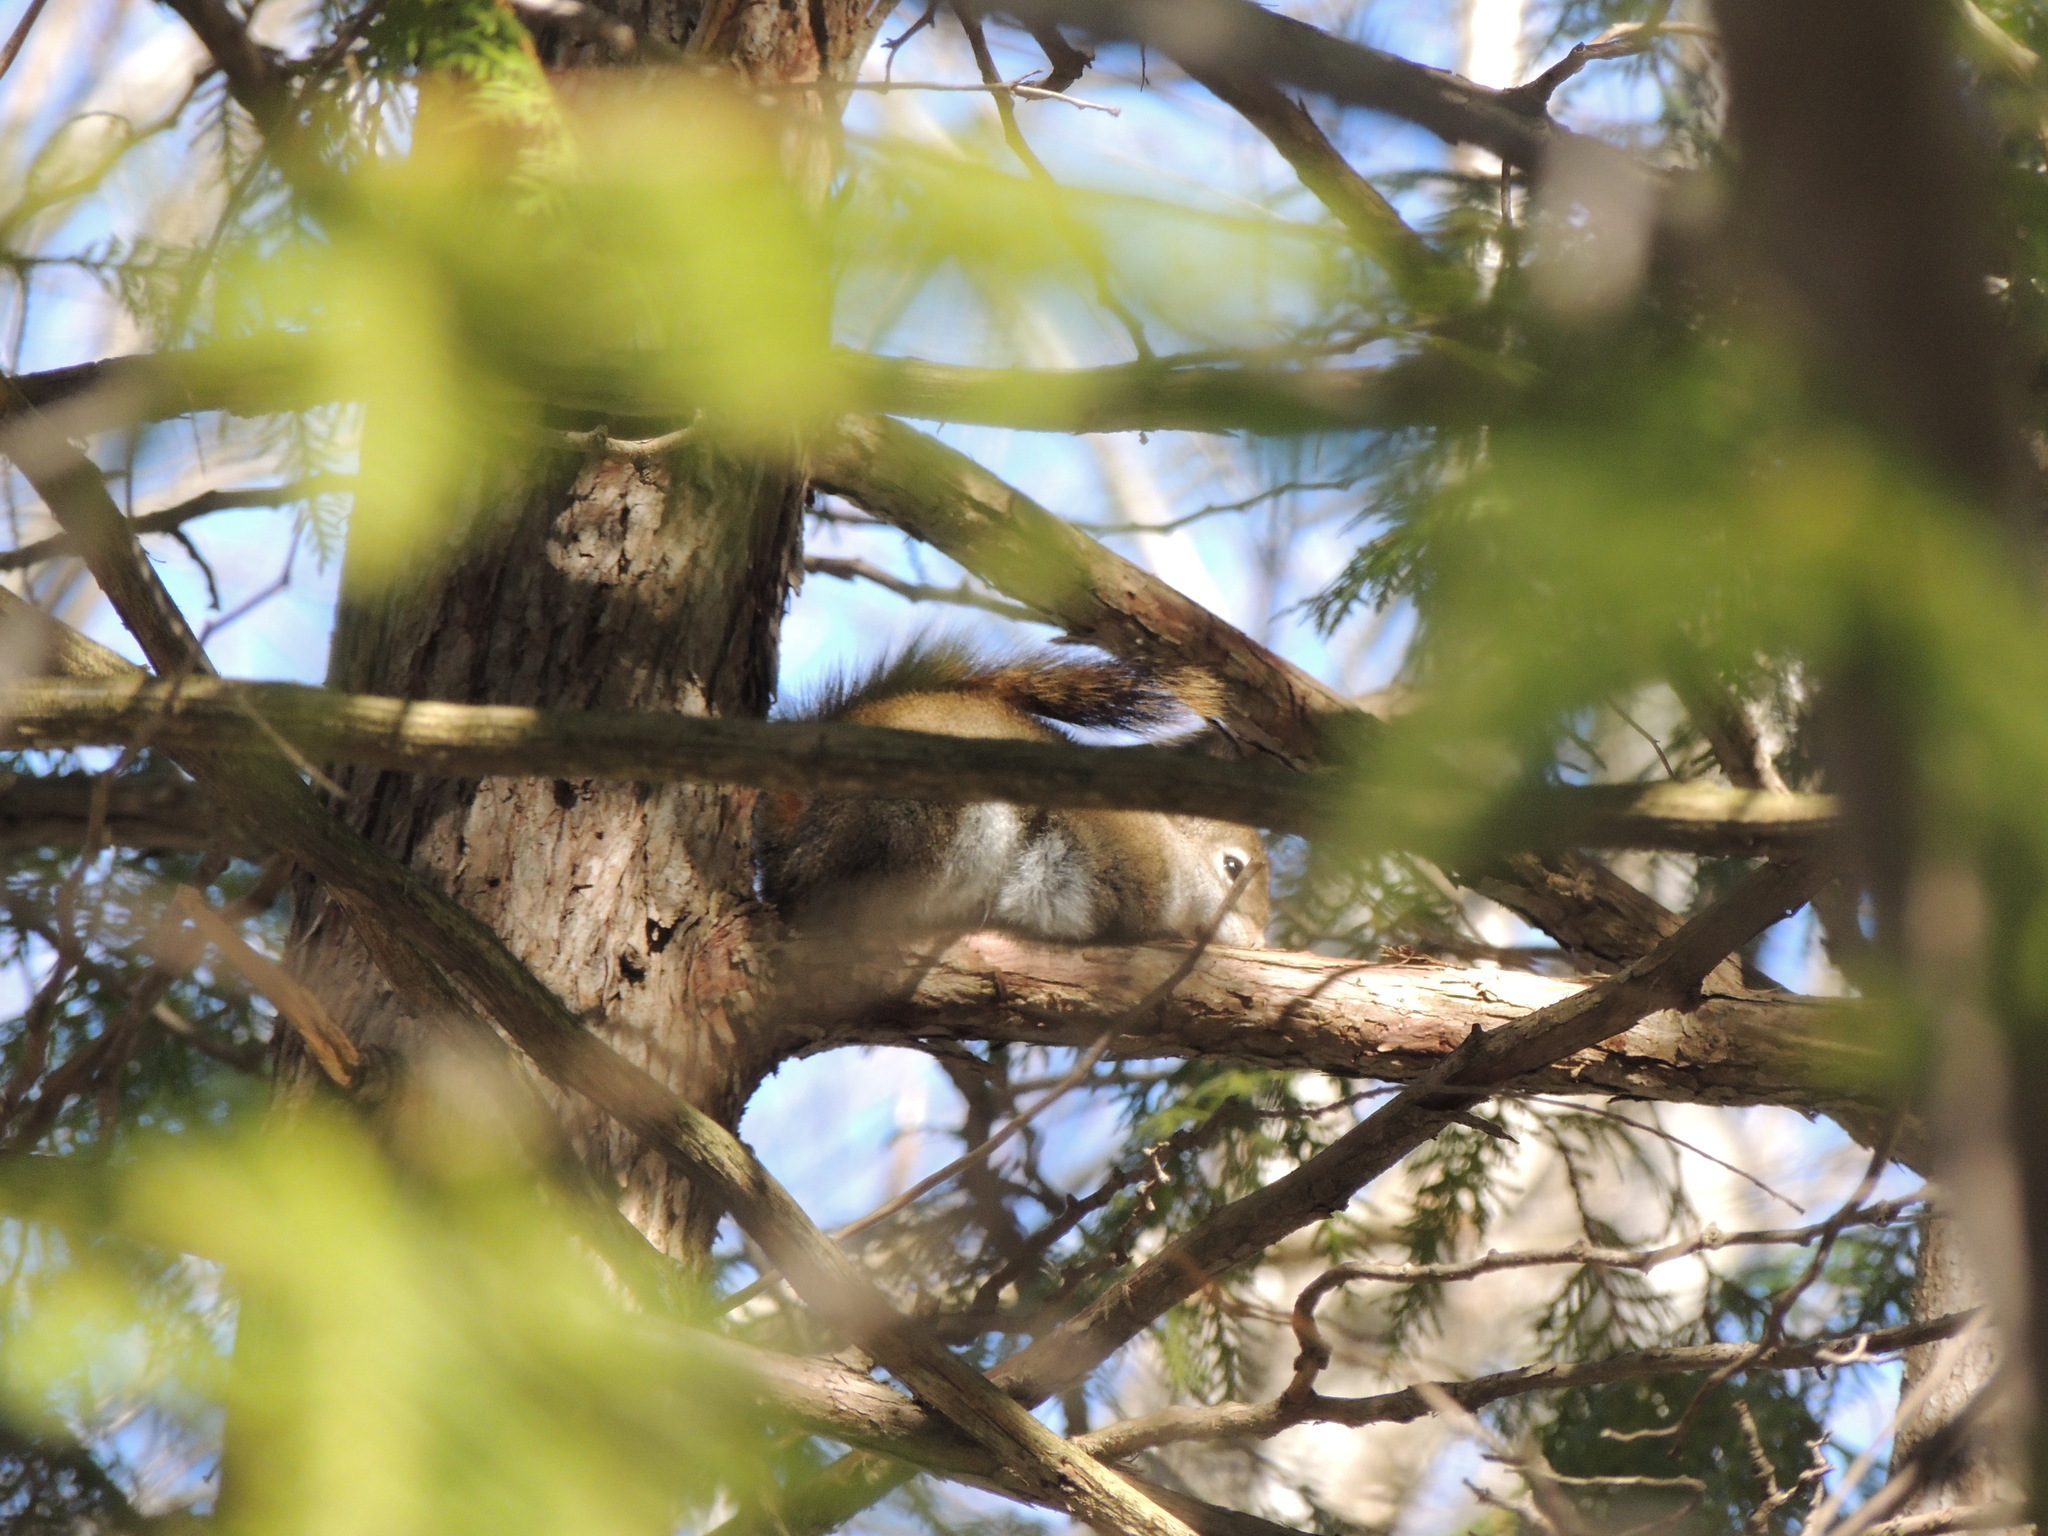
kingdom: Animalia
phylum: Chordata
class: Mammalia
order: Rodentia
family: Sciuridae
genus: Tamiasciurus
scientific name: Tamiasciurus hudsonicus
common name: Red squirrel
